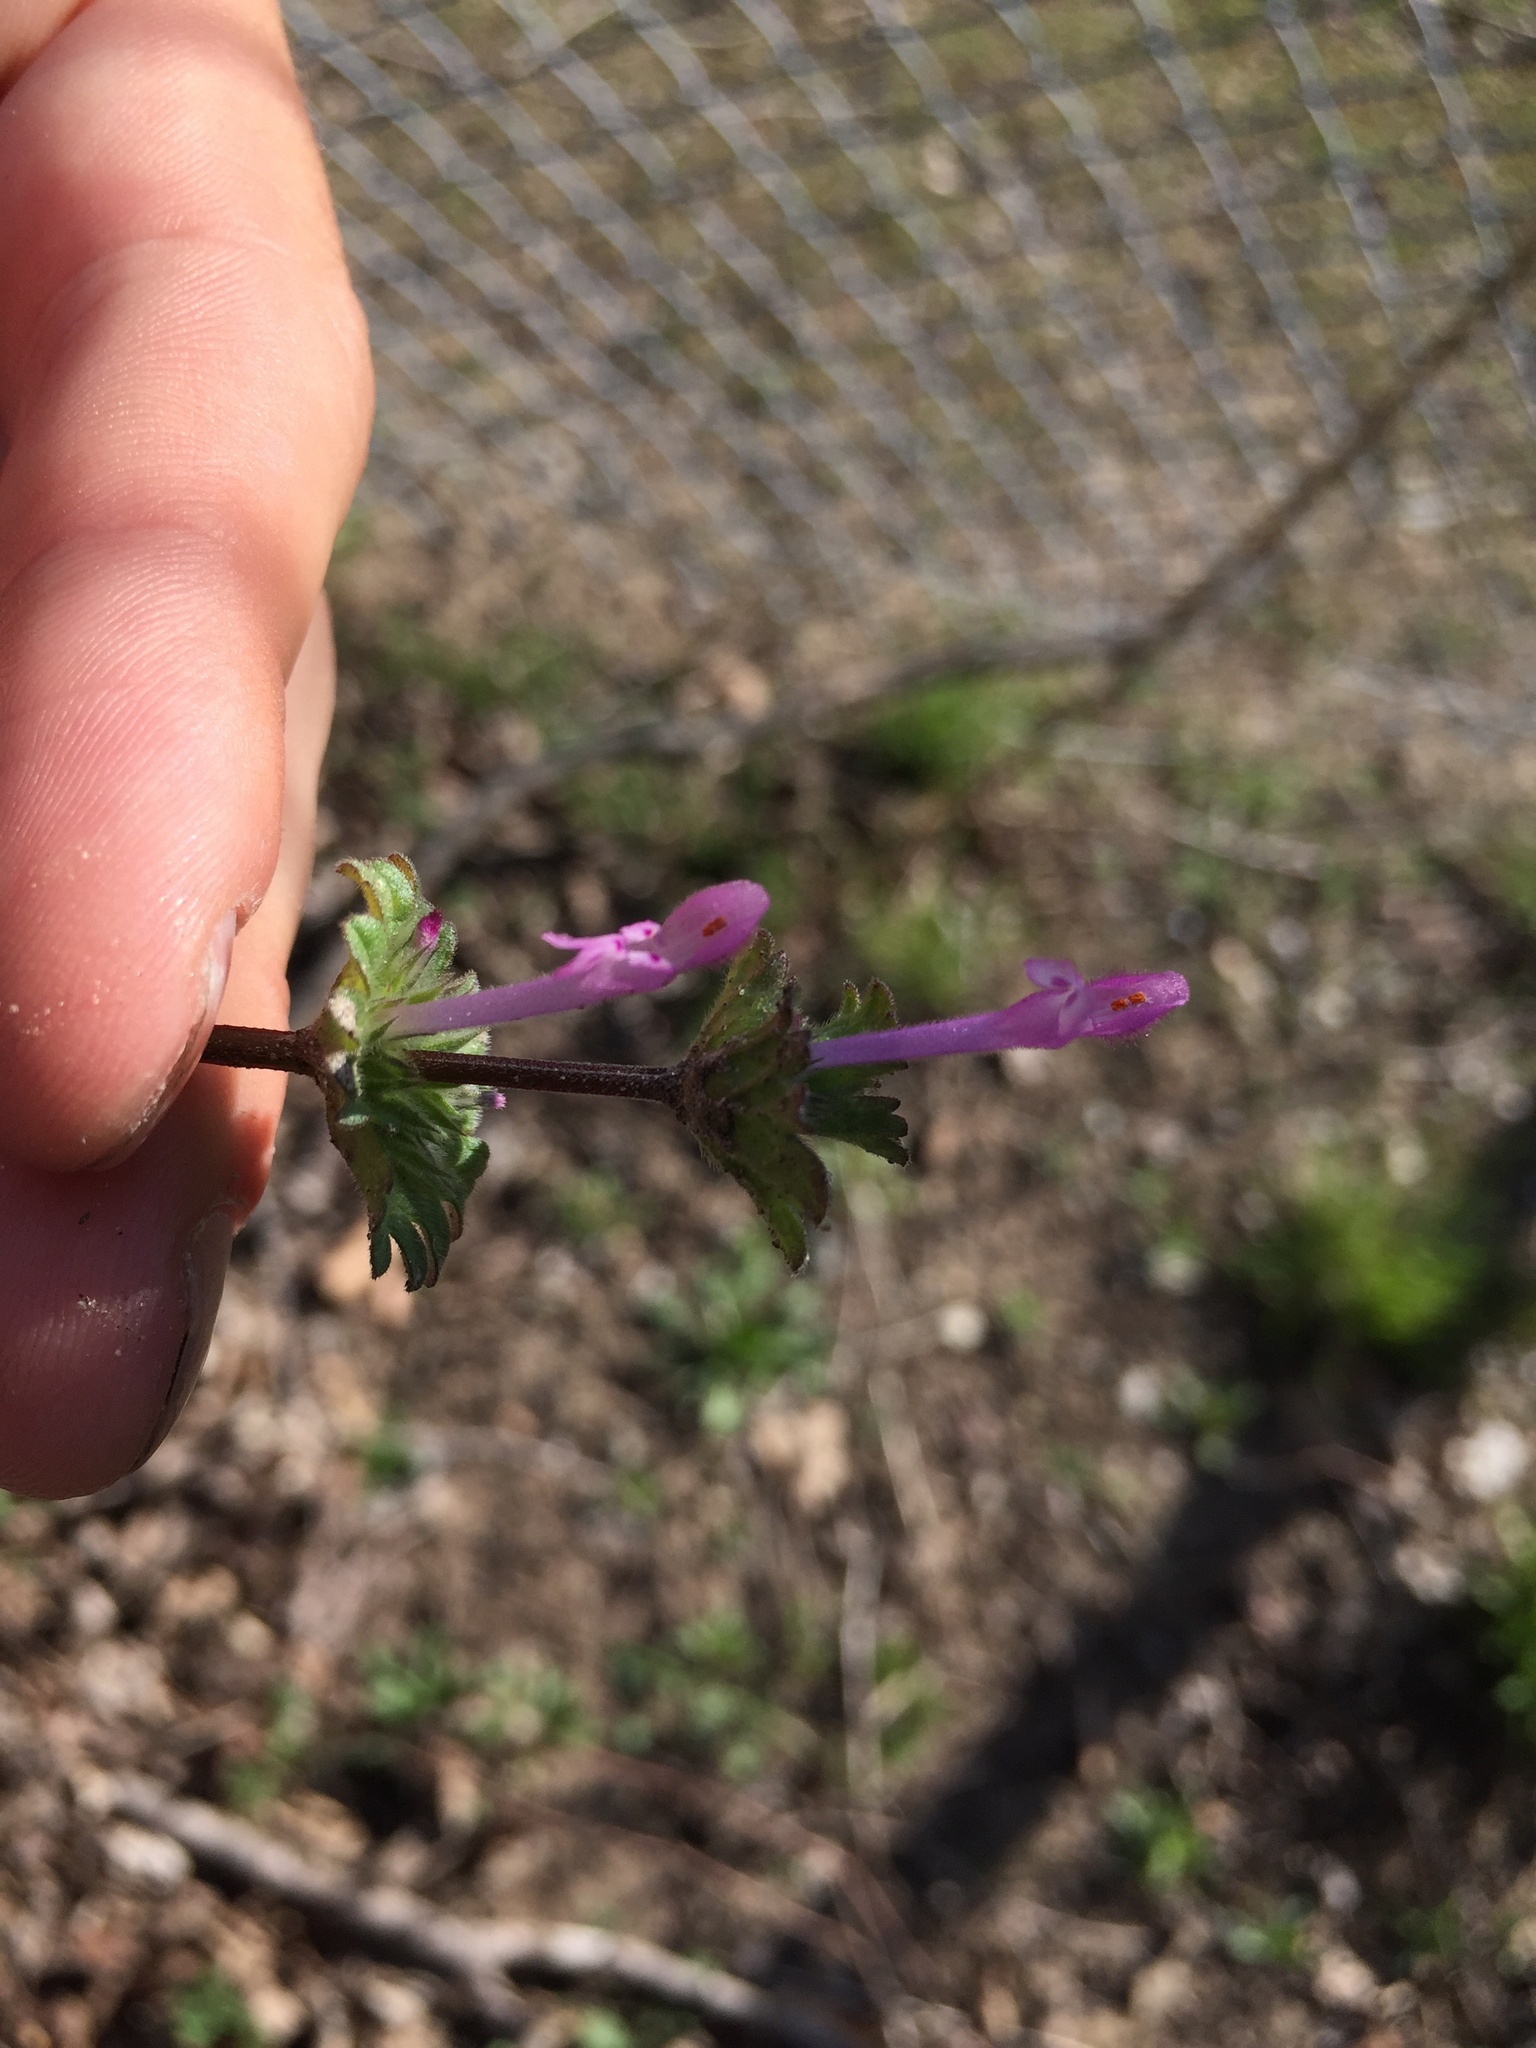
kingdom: Plantae
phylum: Tracheophyta
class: Magnoliopsida
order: Lamiales
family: Lamiaceae
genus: Lamium
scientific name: Lamium amplexicaule
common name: Henbit dead-nettle
